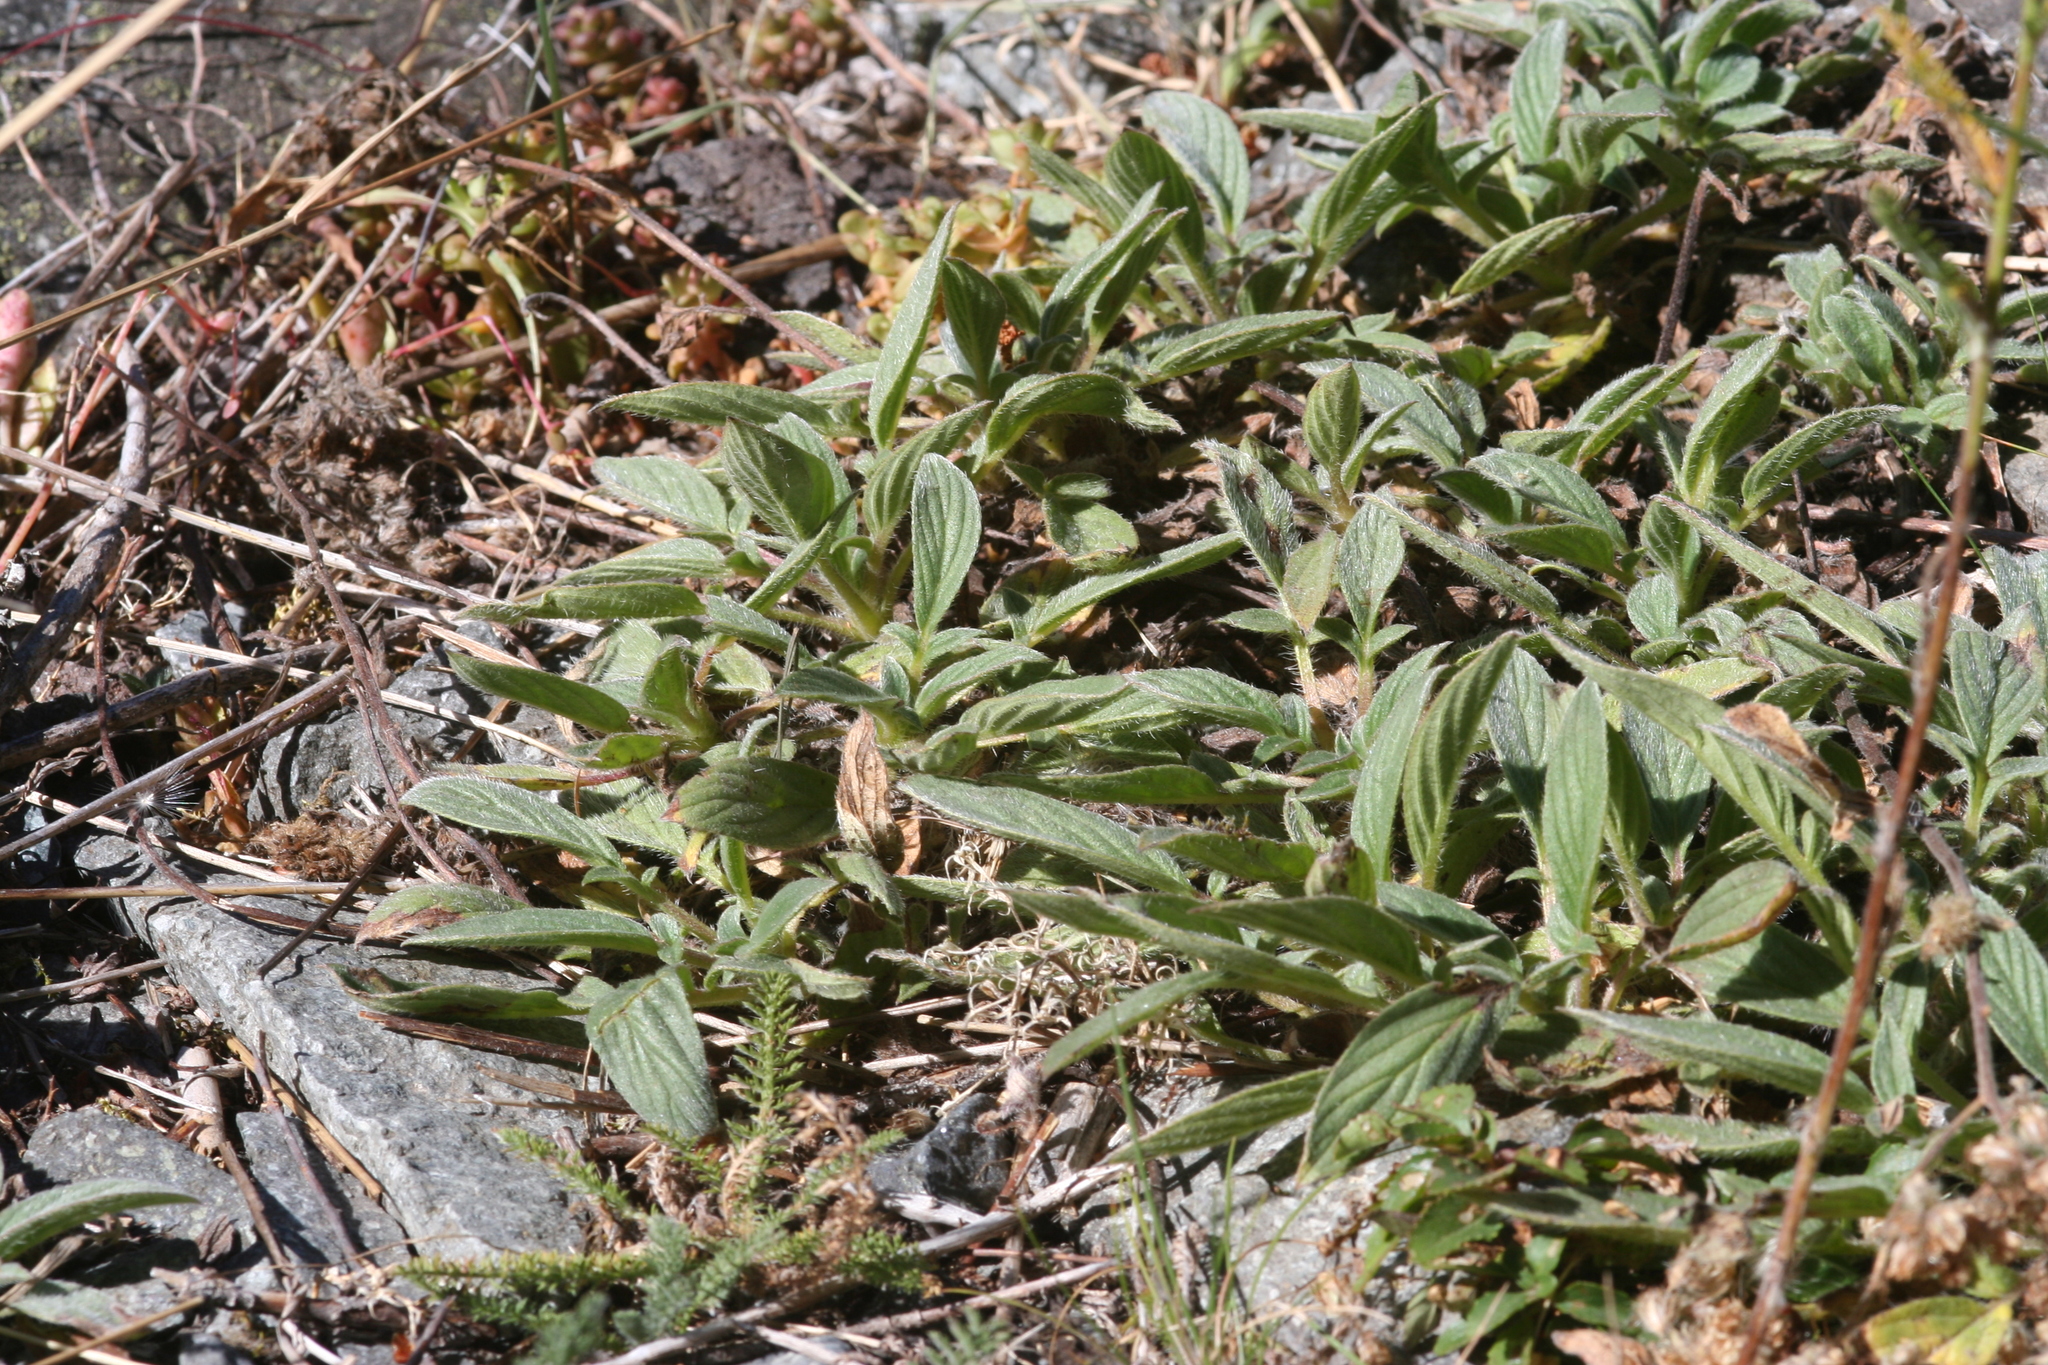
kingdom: Plantae
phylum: Tracheophyta
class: Magnoliopsida
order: Boraginales
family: Hydrophyllaceae
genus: Phacelia
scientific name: Phacelia hastata
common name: Silver-leaved phacelia
